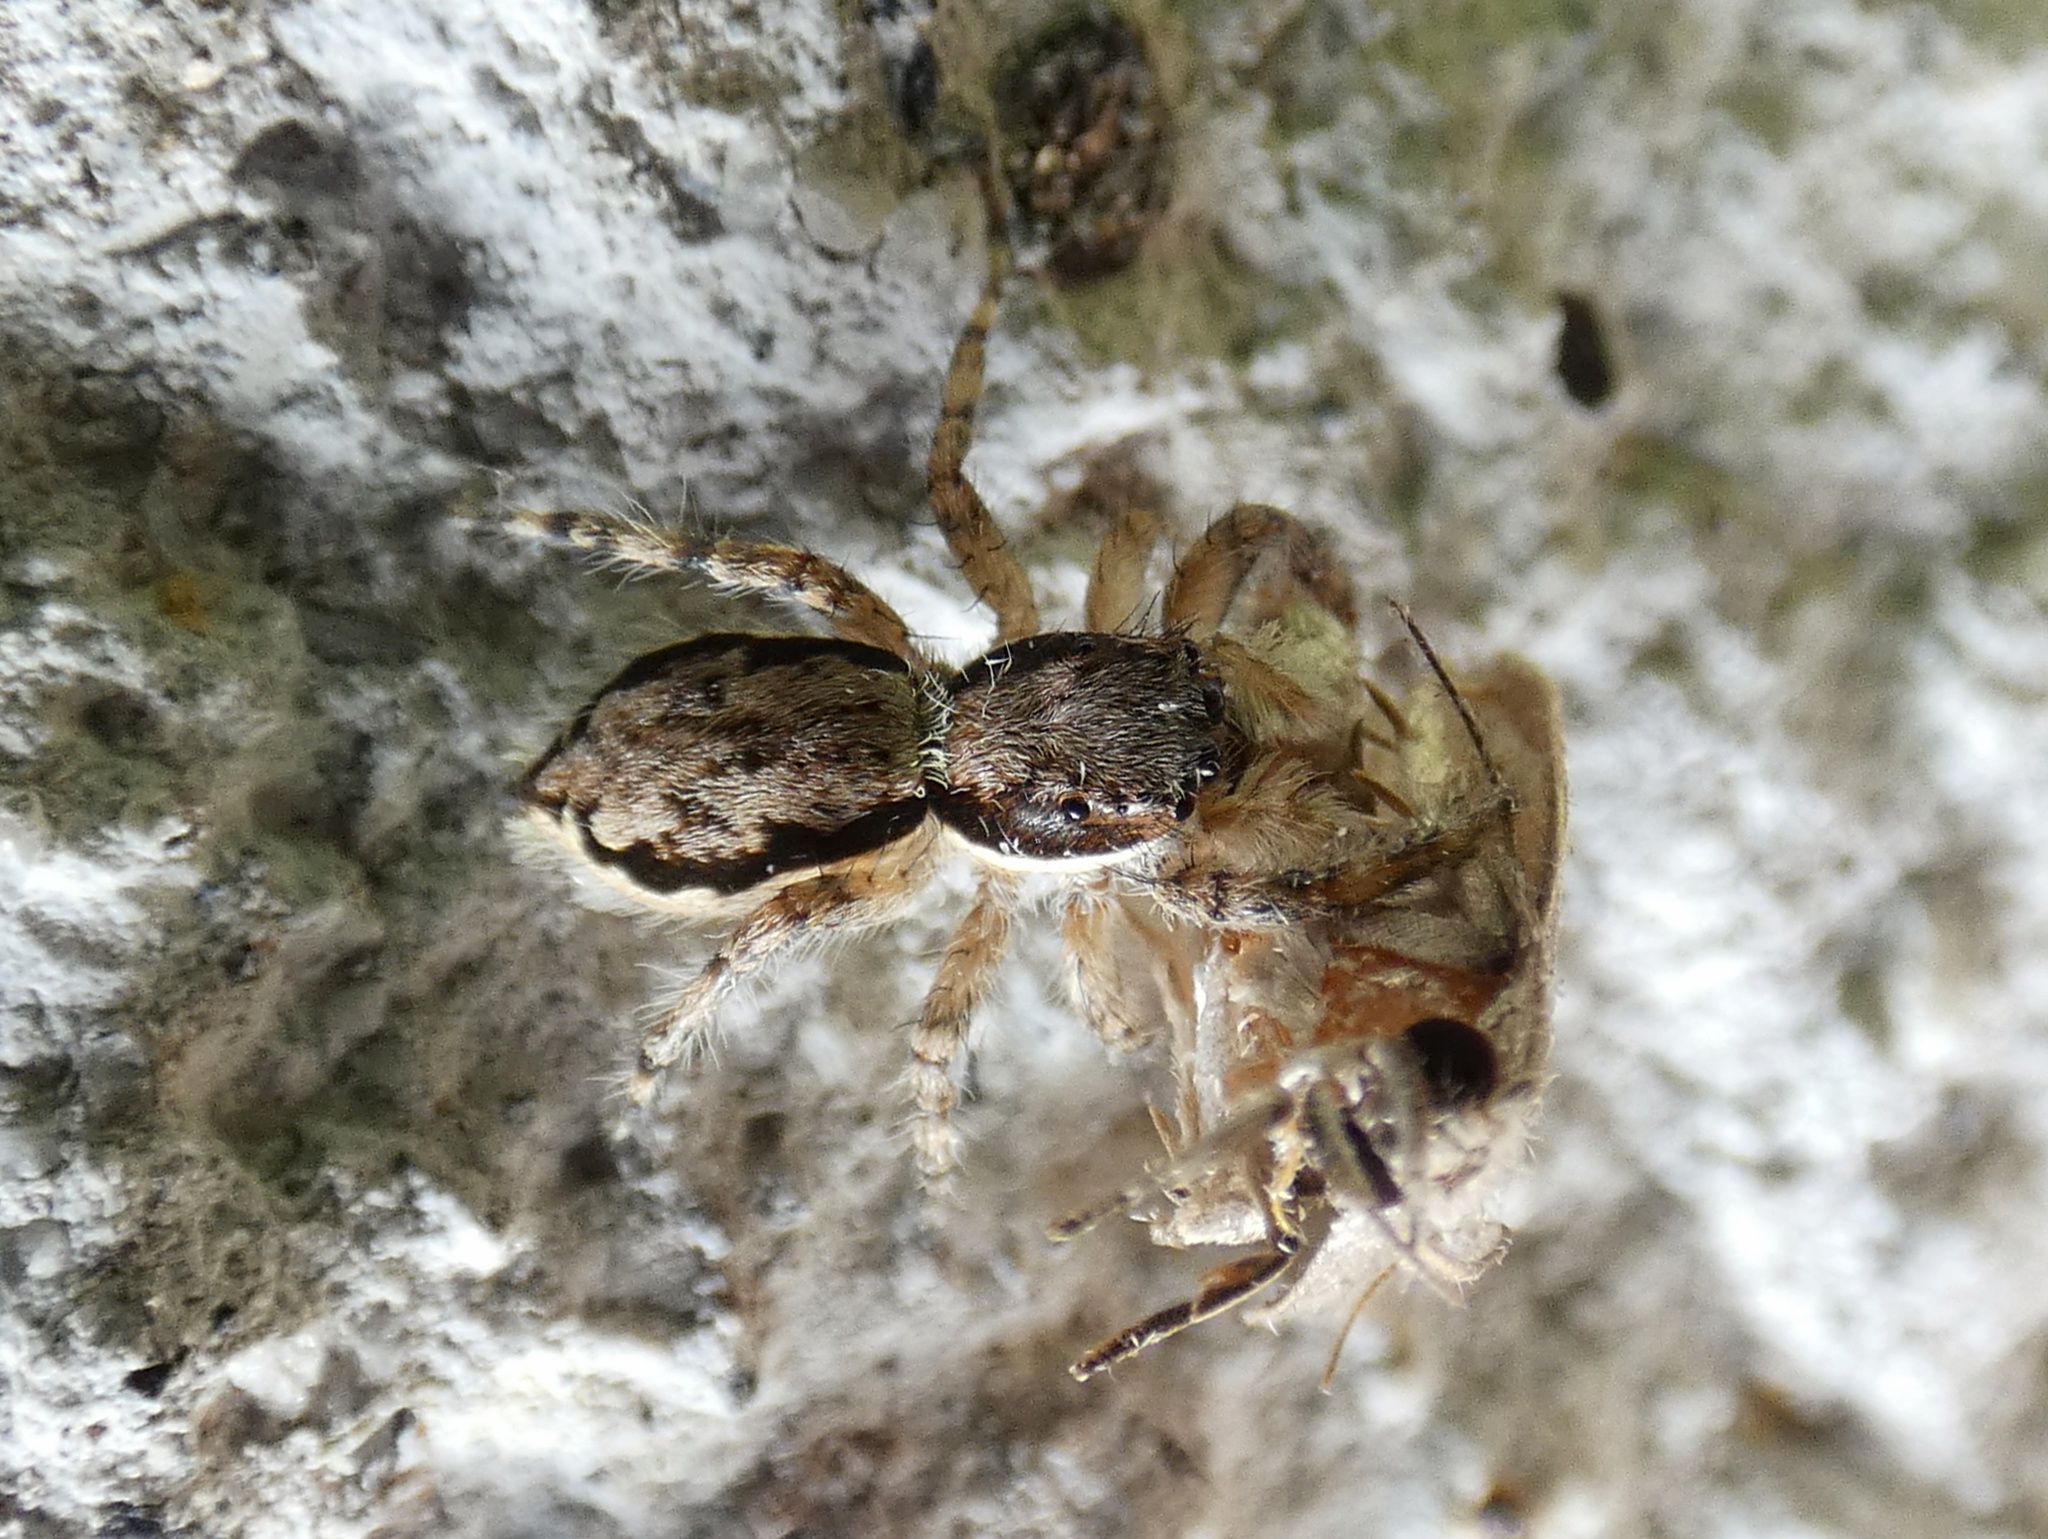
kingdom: Animalia
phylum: Arthropoda
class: Arachnida
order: Araneae
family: Salticidae
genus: Menemerus
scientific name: Menemerus bivittatus
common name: Gray wall jumper
